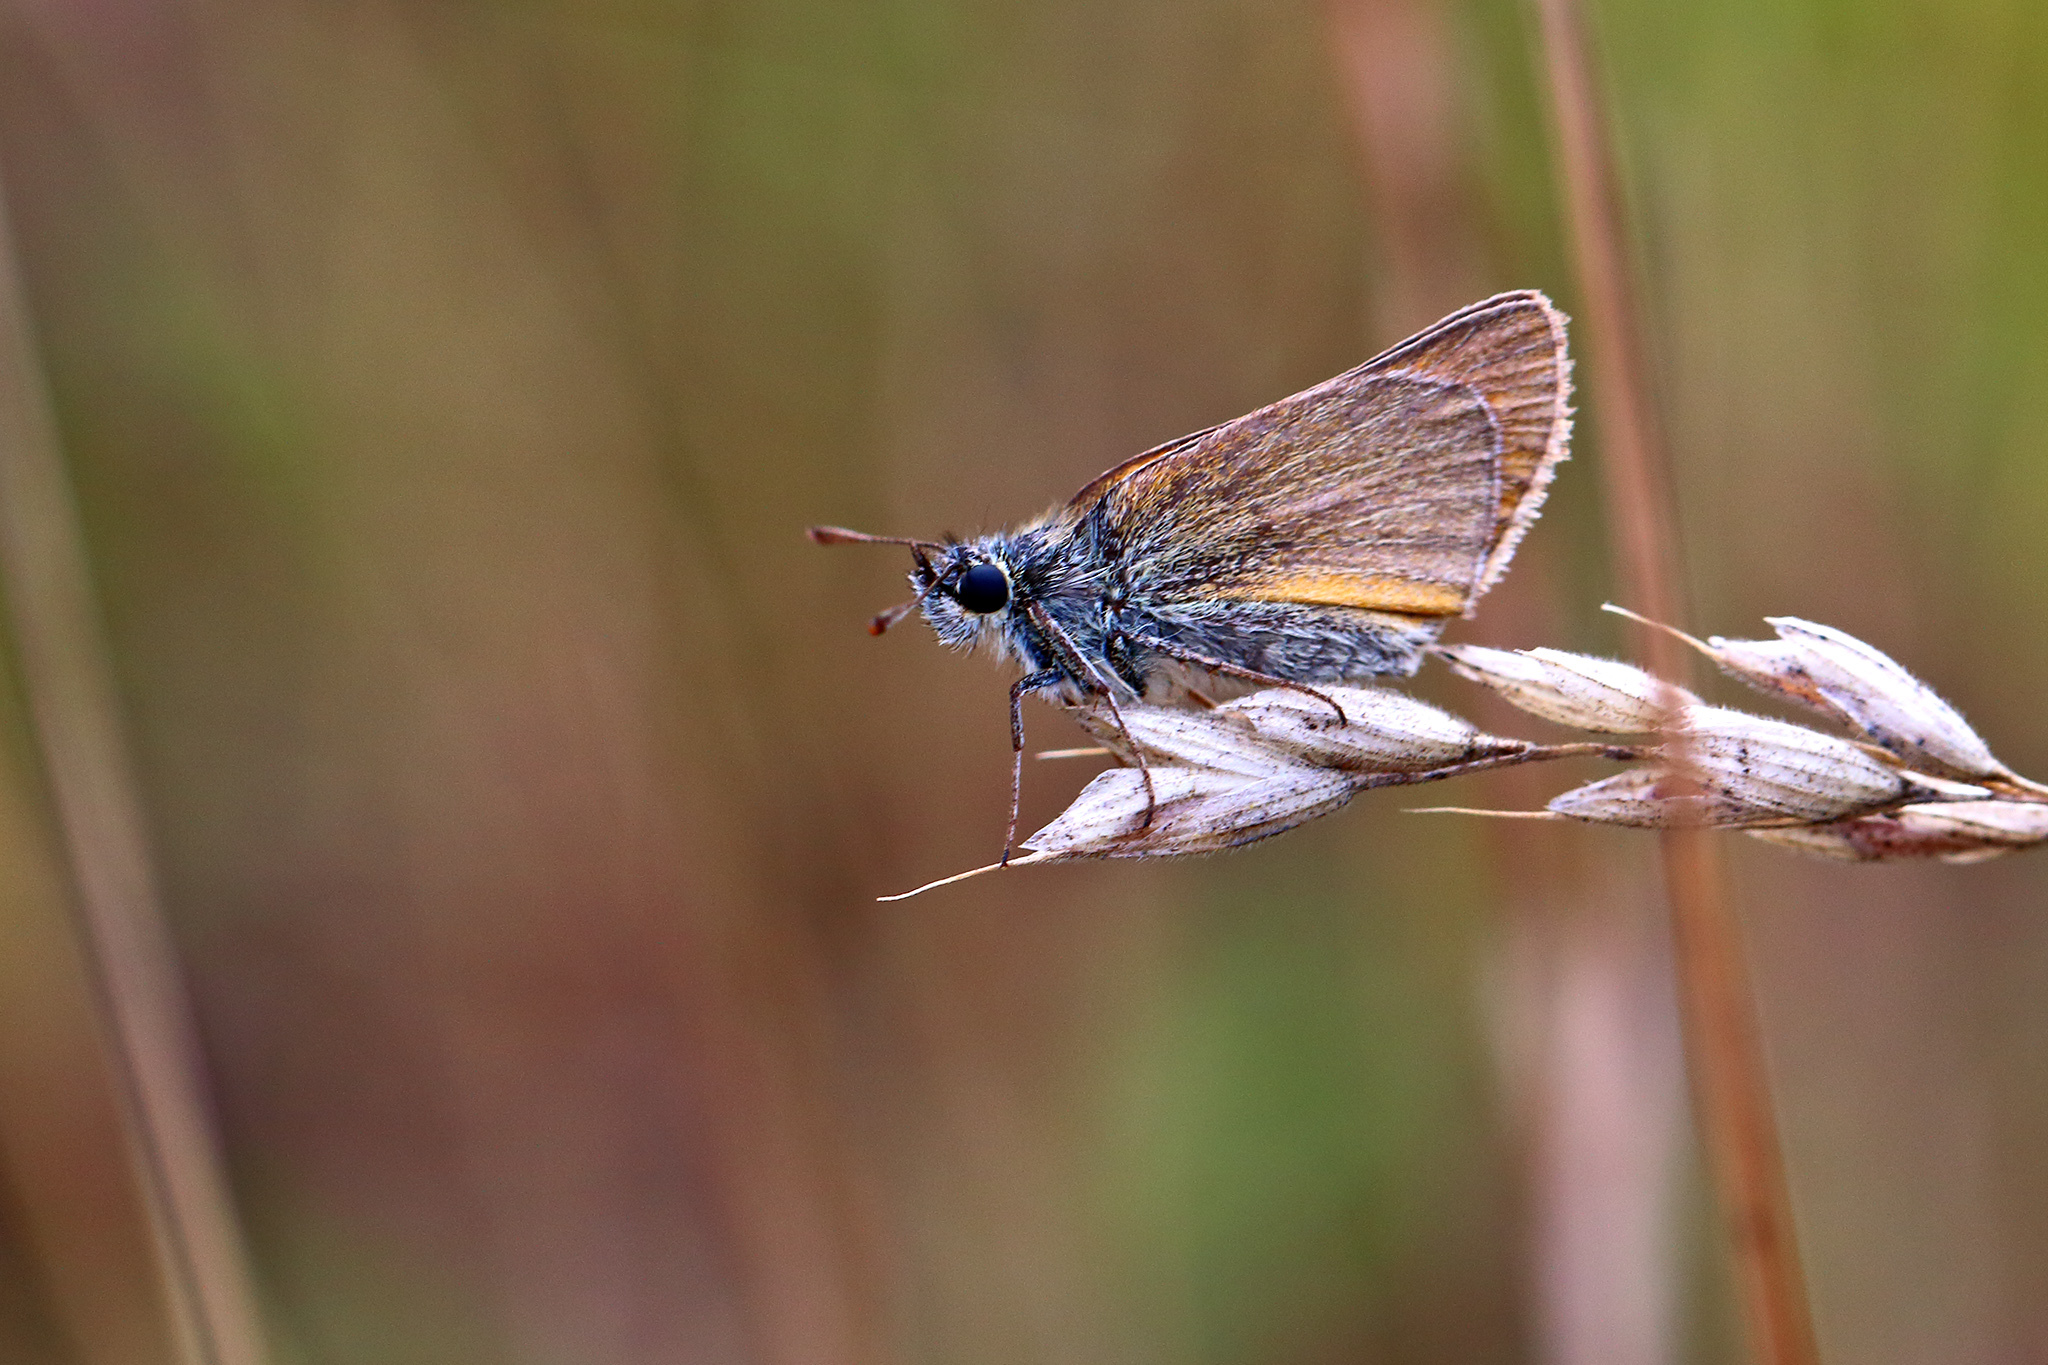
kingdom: Animalia
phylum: Arthropoda
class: Insecta
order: Lepidoptera
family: Hesperiidae
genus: Thymelicus
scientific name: Thymelicus sylvestris
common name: Small skipper
